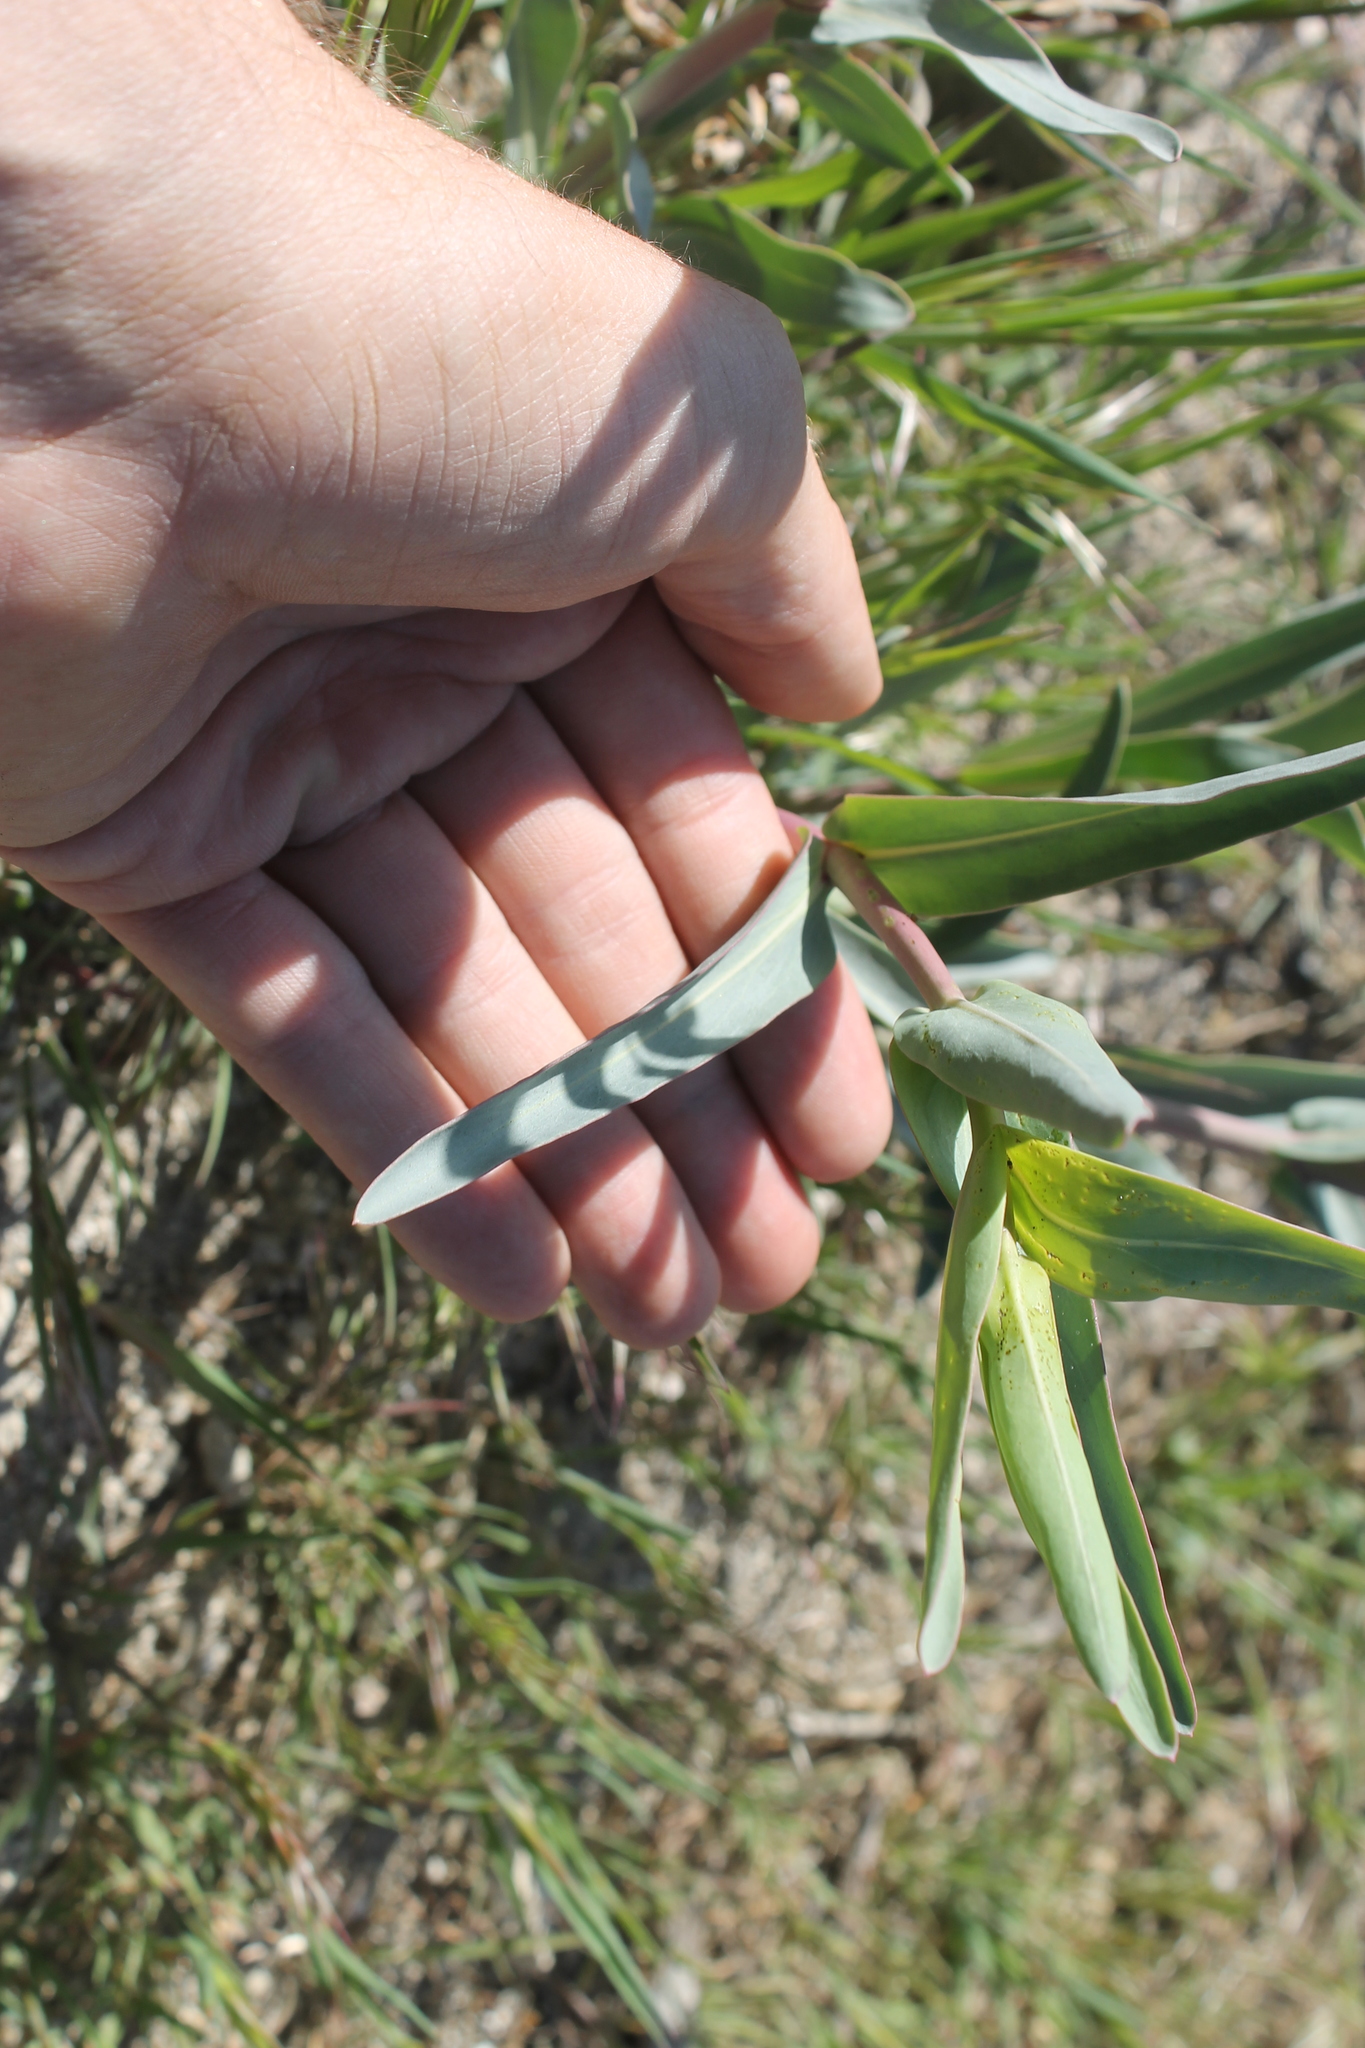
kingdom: Plantae
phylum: Tracheophyta
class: Magnoliopsida
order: Lamiales
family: Plantaginaceae
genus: Penstemon
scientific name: Penstemon centranthifolius
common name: Scarlet bugler
